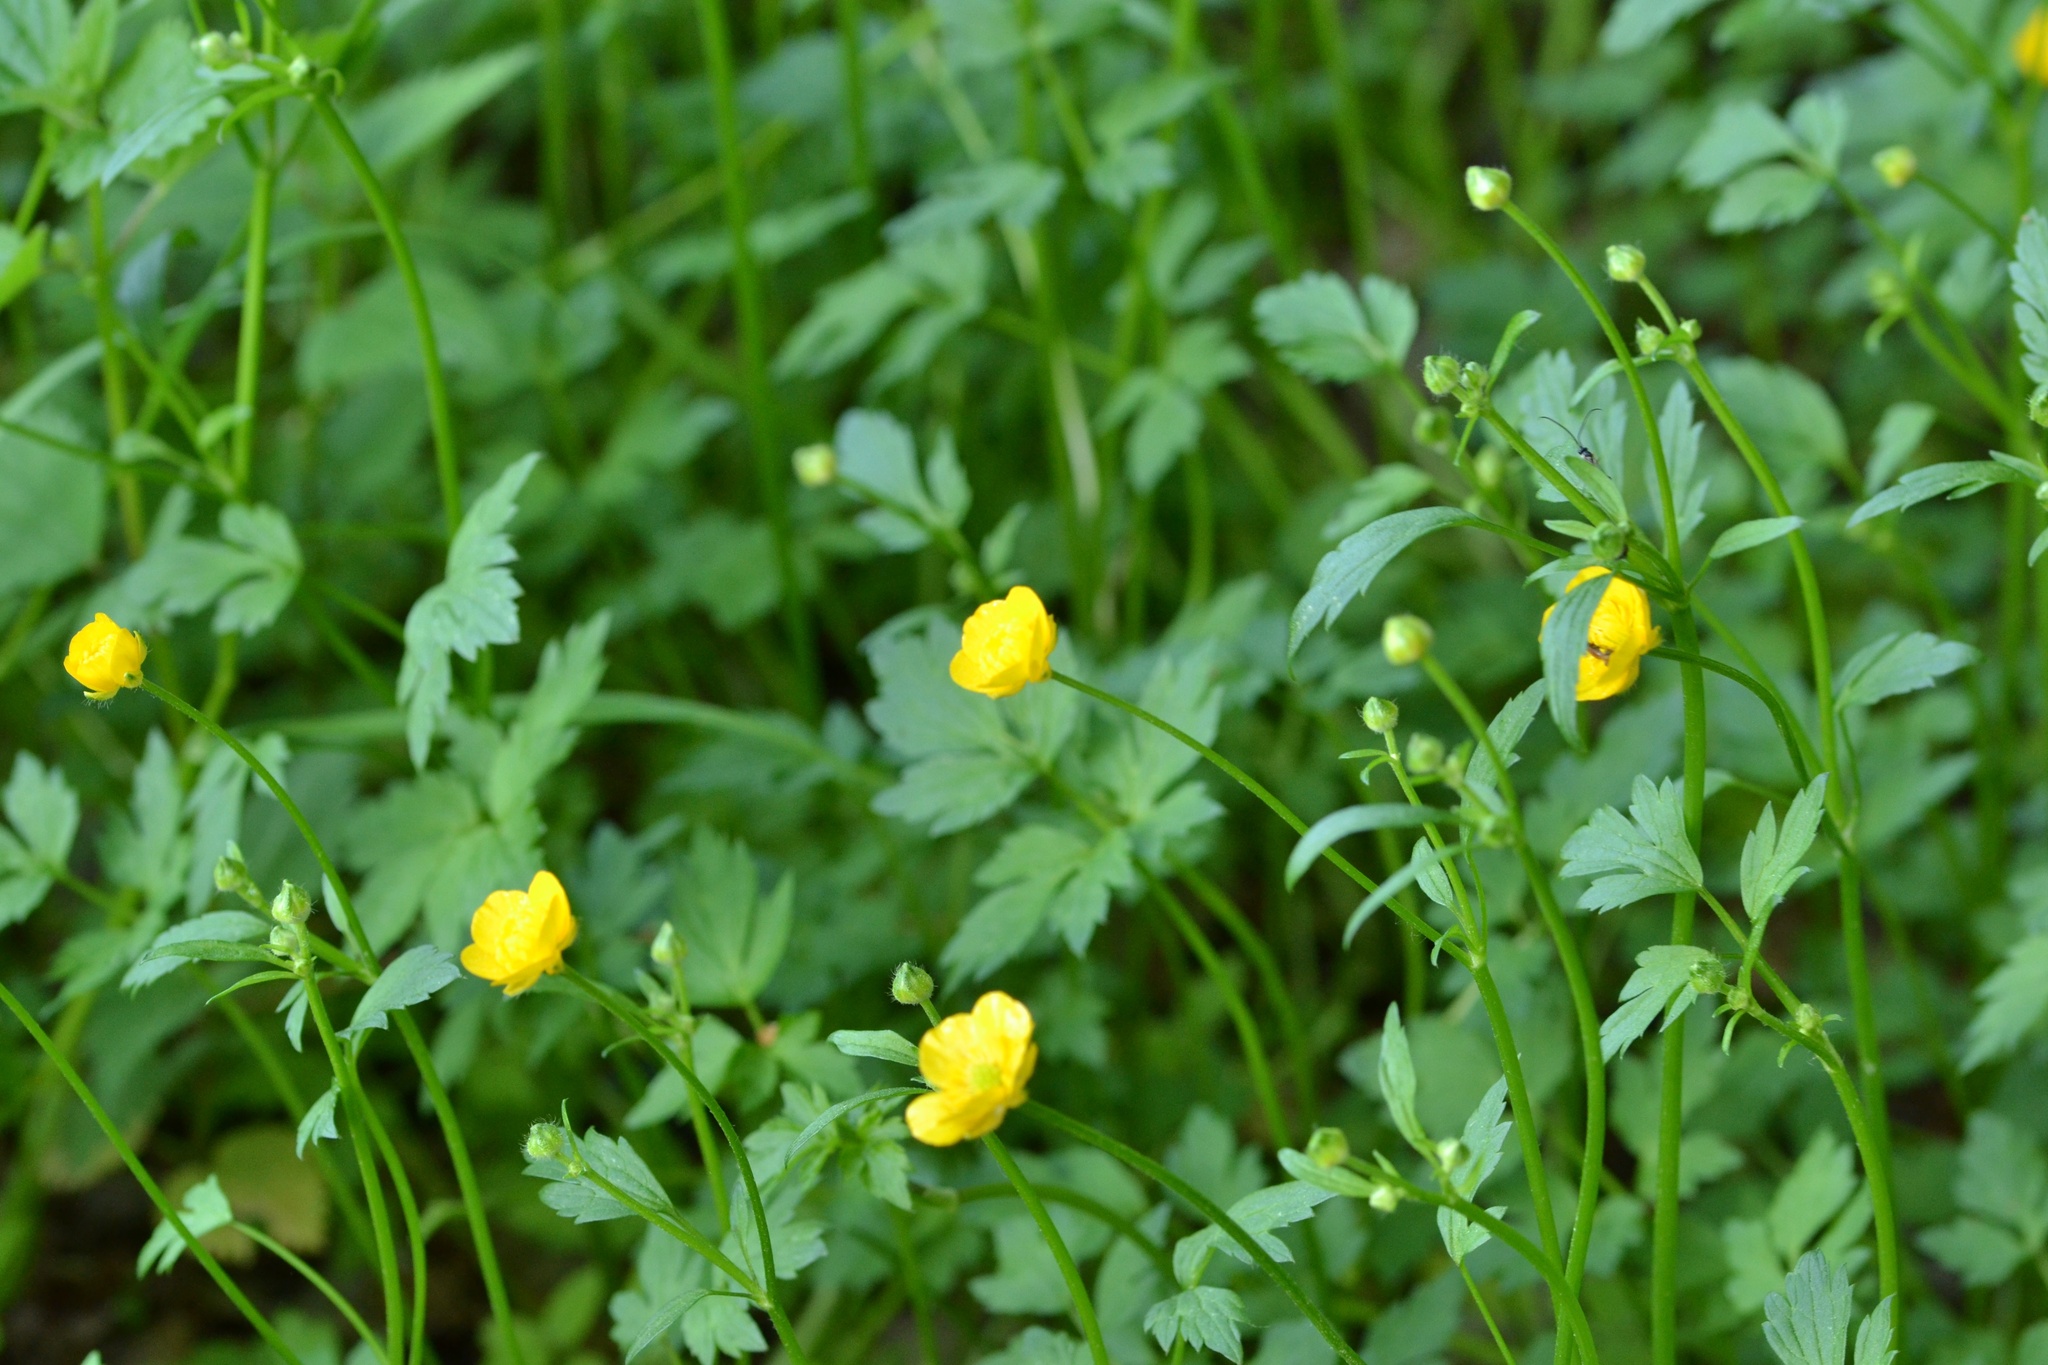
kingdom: Plantae
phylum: Tracheophyta
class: Magnoliopsida
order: Ranunculales
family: Ranunculaceae
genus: Ranunculus
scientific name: Ranunculus repens
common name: Creeping buttercup
